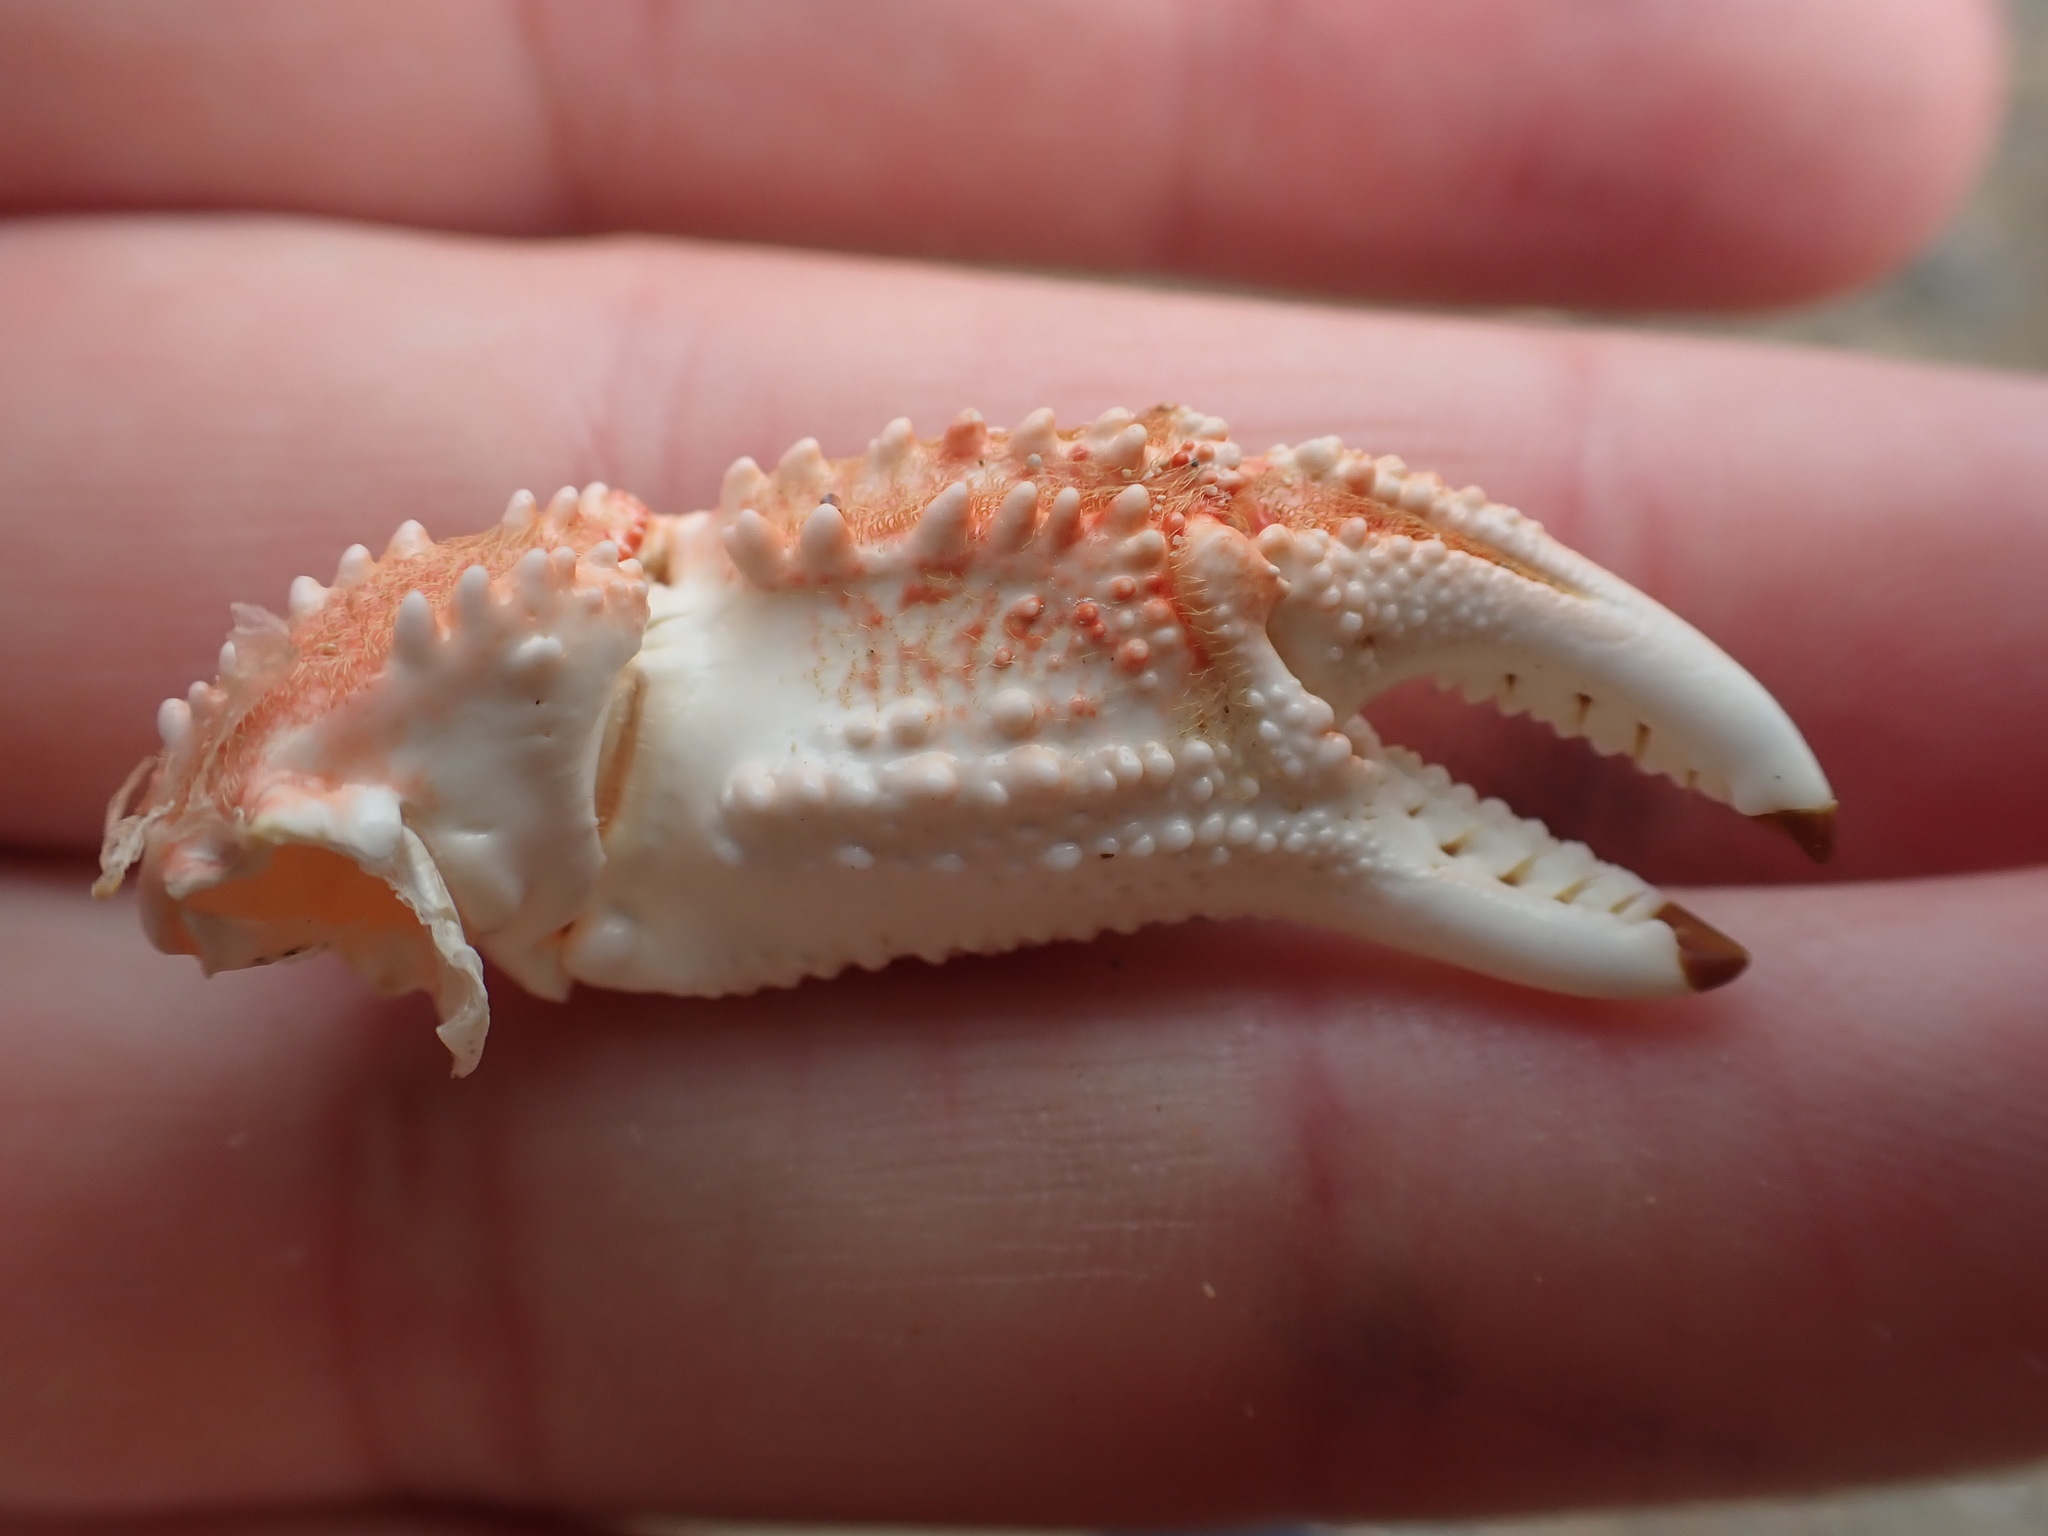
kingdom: Animalia
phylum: Arthropoda
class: Malacostraca
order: Decapoda
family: Plagusiidae
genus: Guinusia
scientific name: Guinusia chabrus
